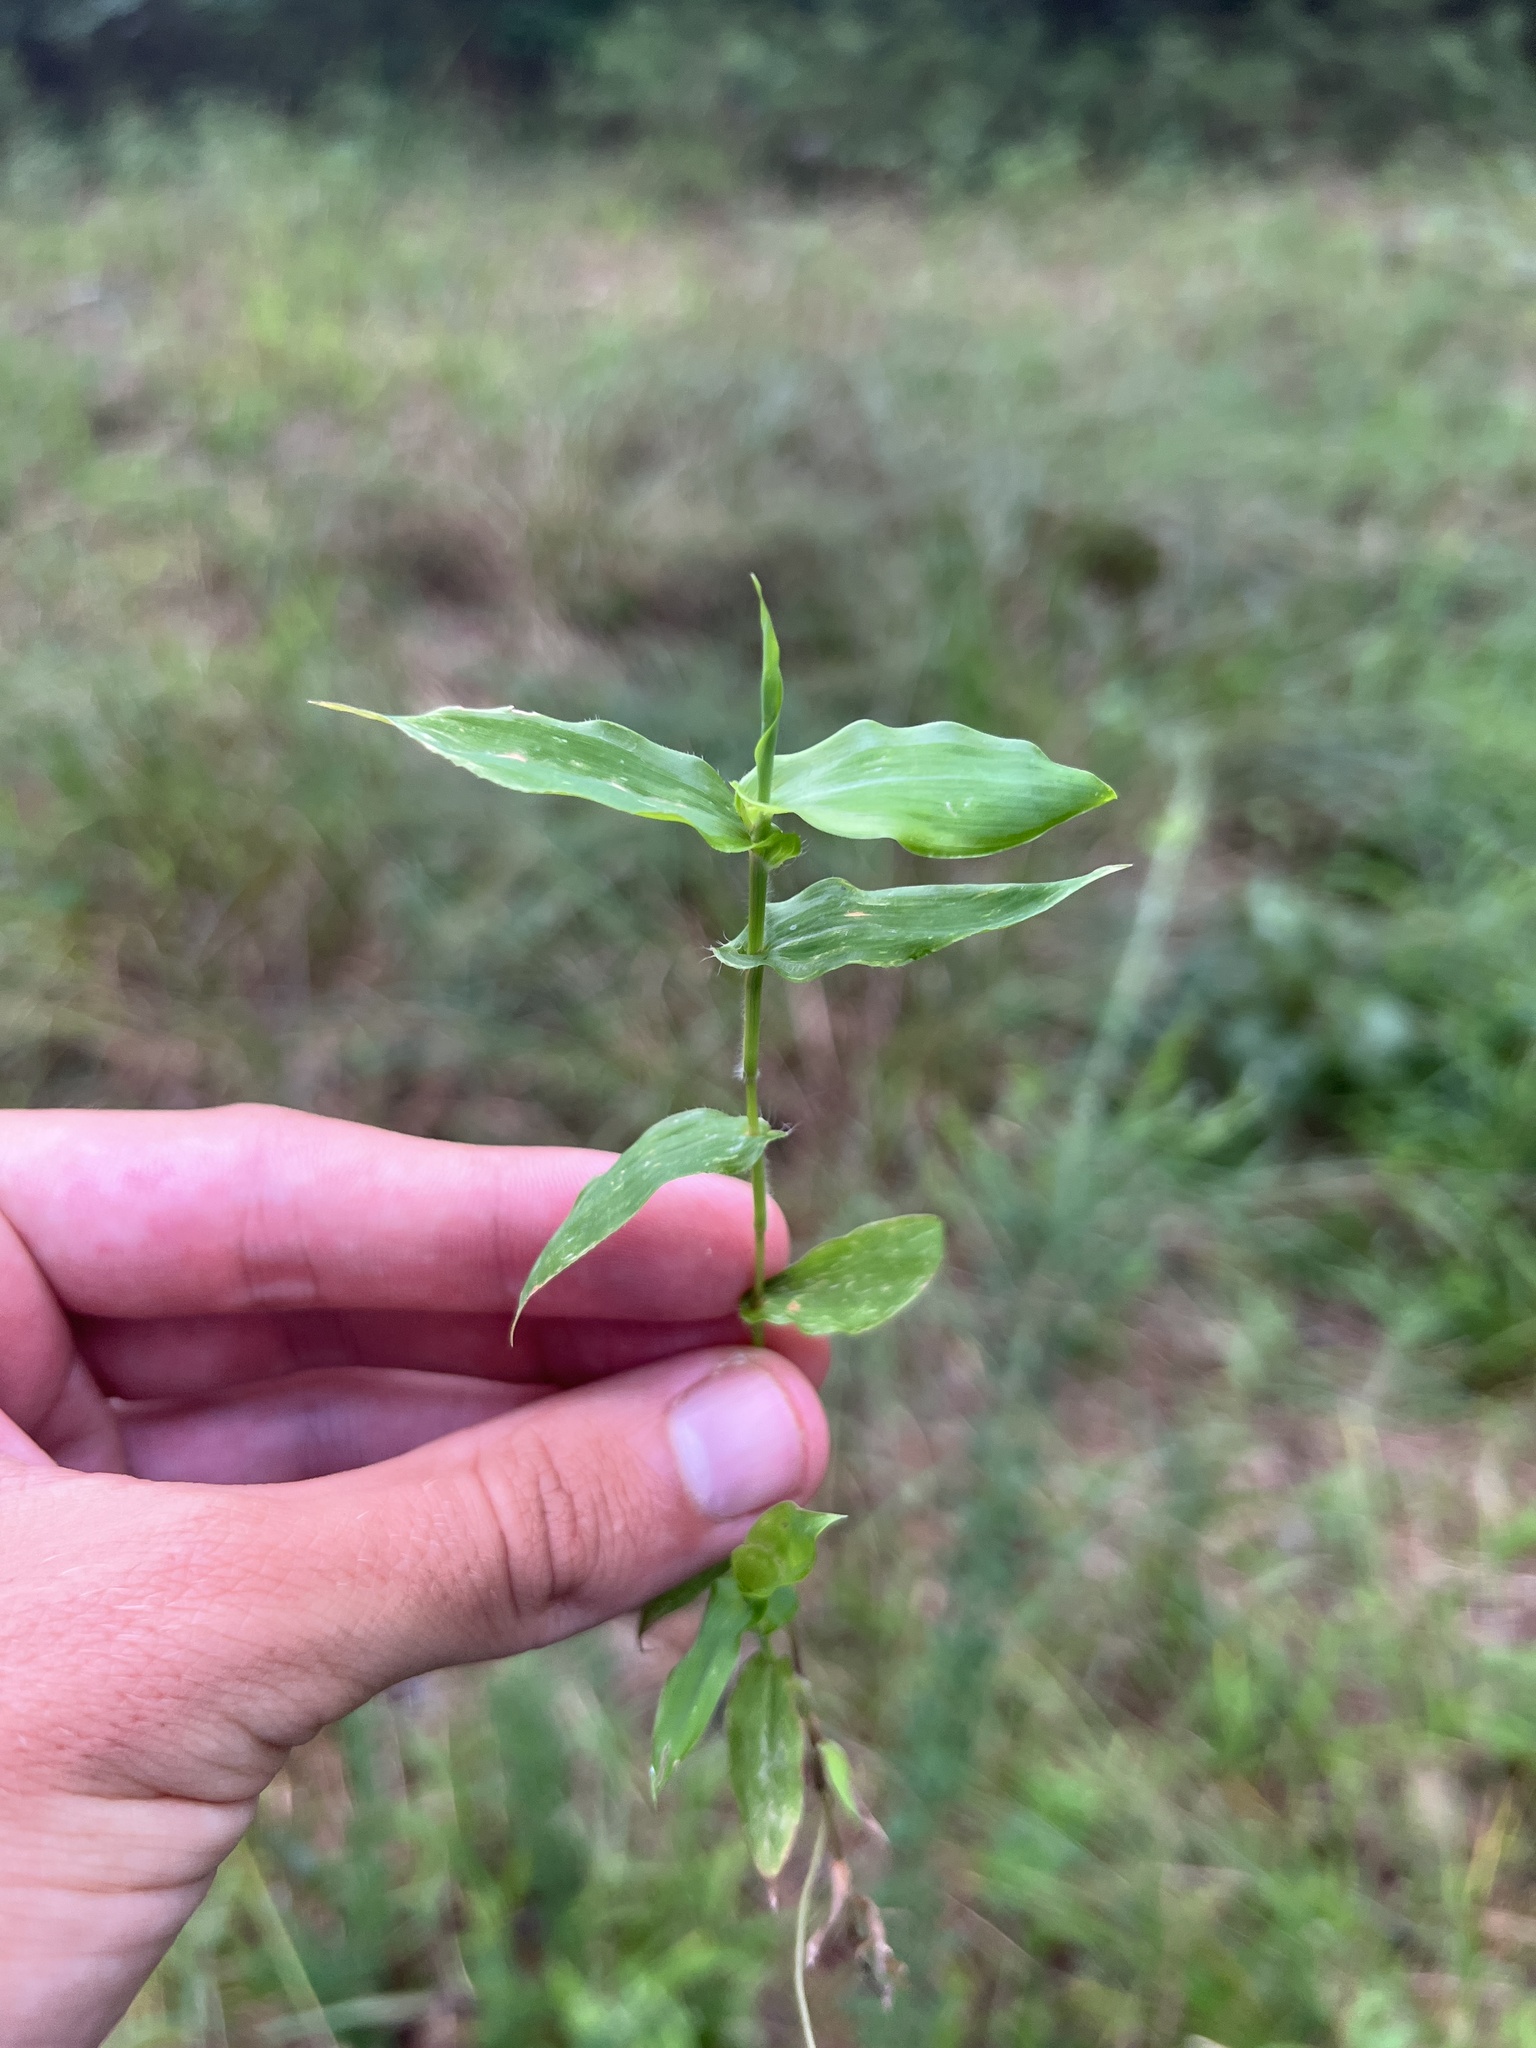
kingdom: Plantae
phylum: Tracheophyta
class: Liliopsida
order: Poales
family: Poaceae
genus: Arthraxon
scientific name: Arthraxon hispidus
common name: Small carpgrass
